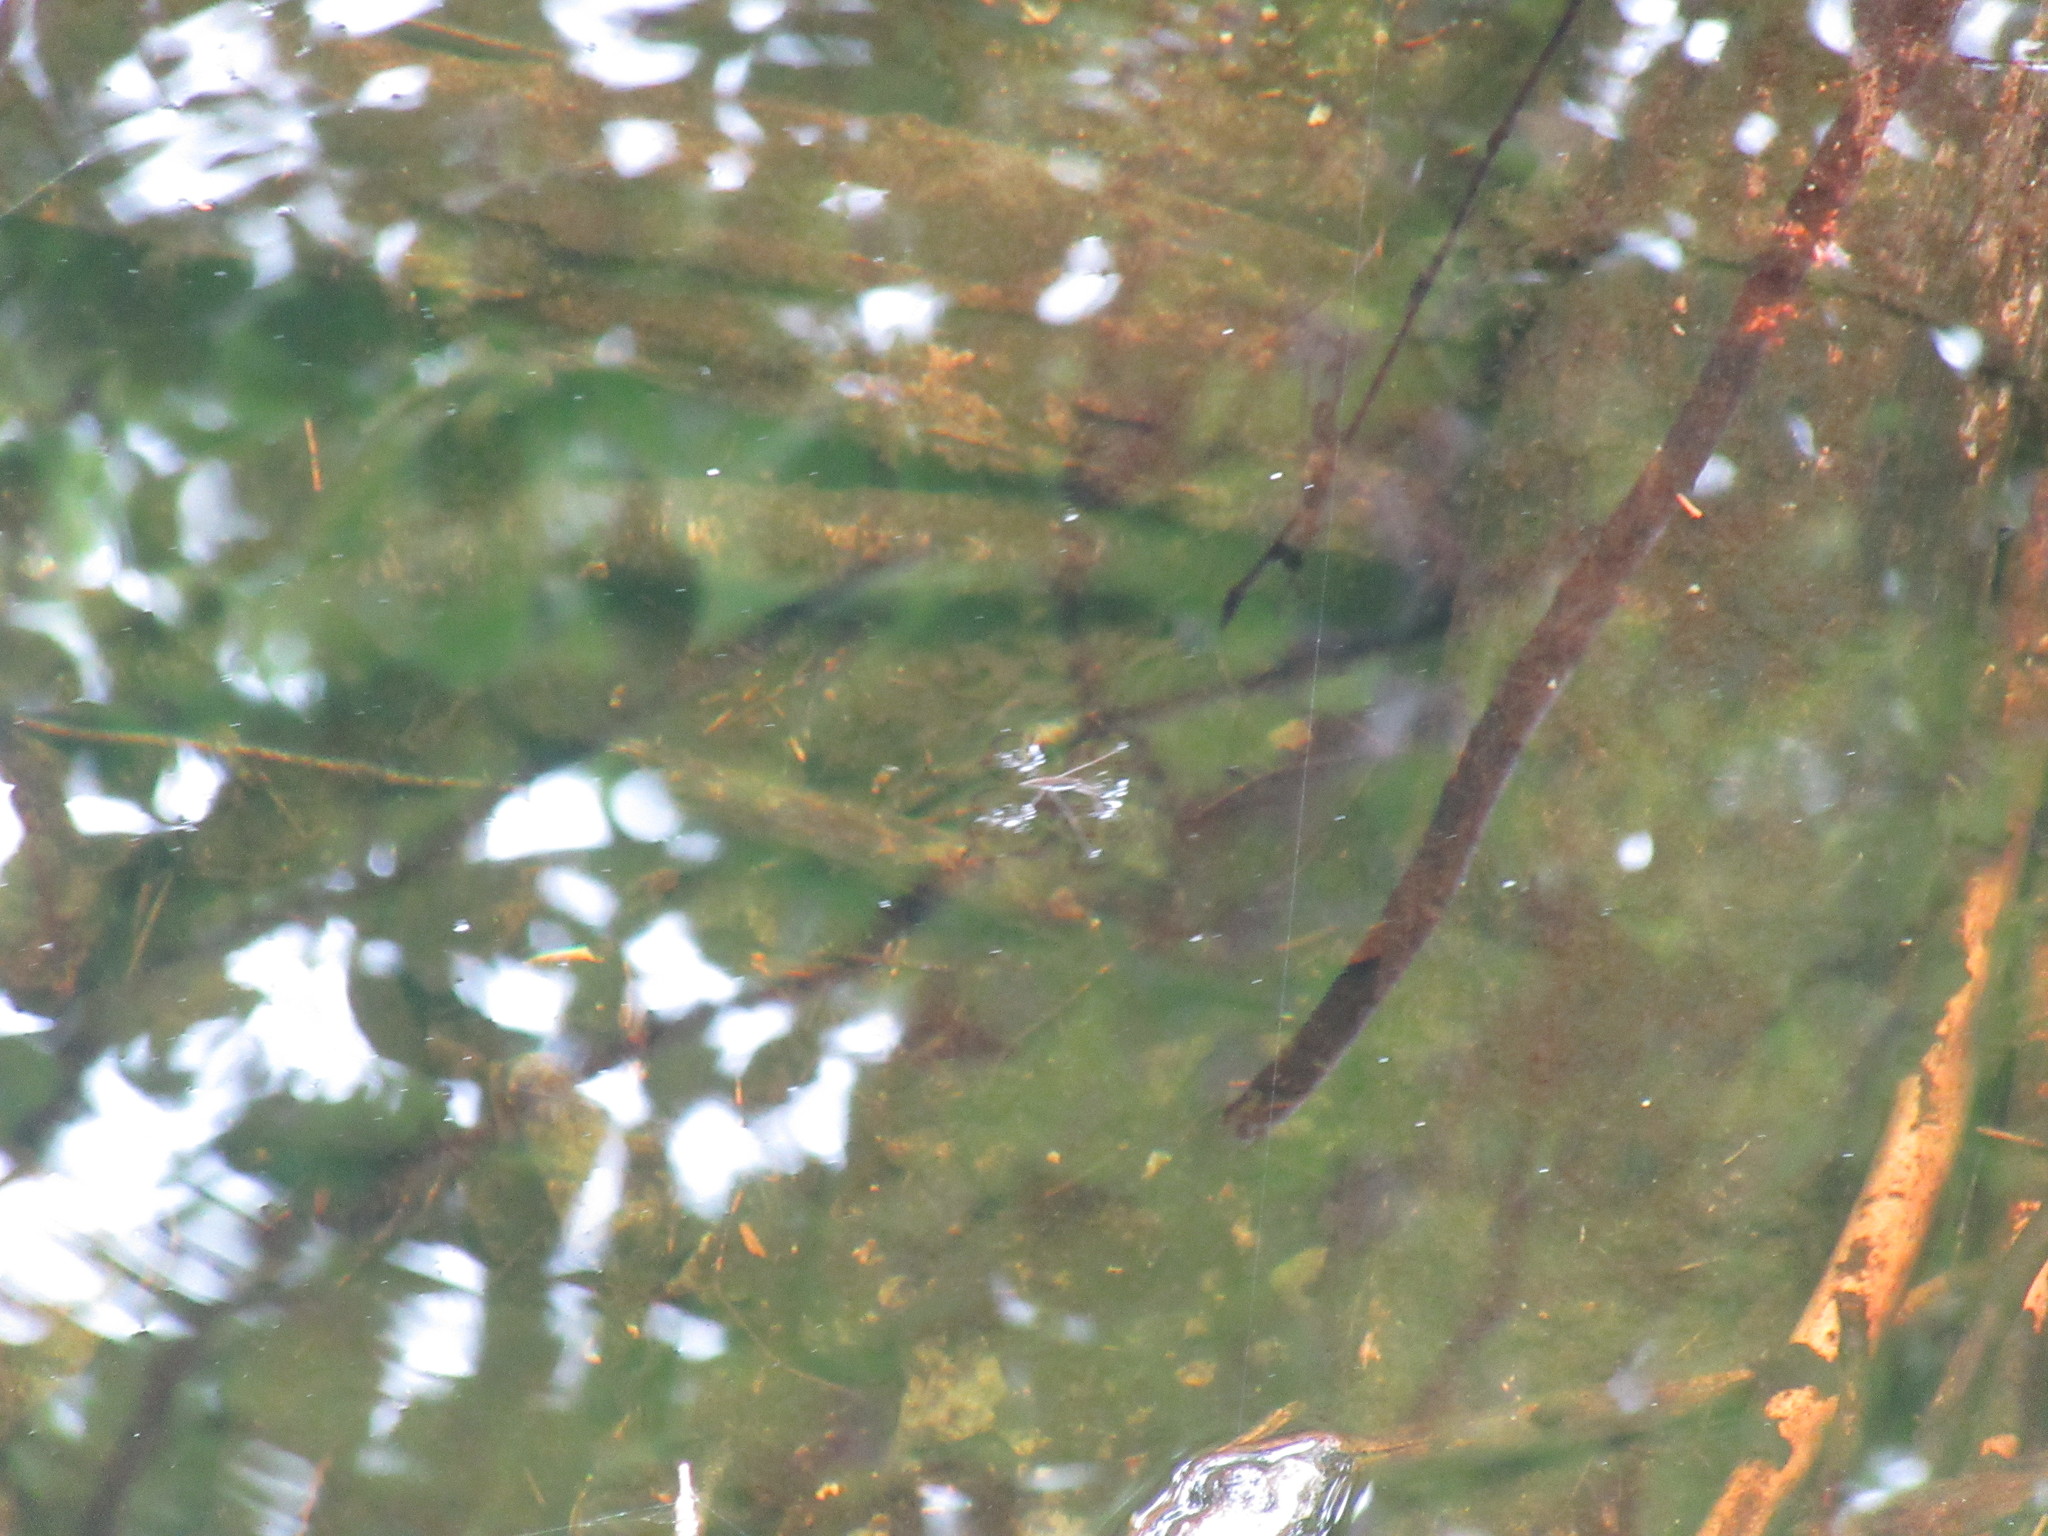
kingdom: Animalia
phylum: Arthropoda
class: Insecta
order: Hemiptera
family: Gerridae
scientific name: Gerridae
